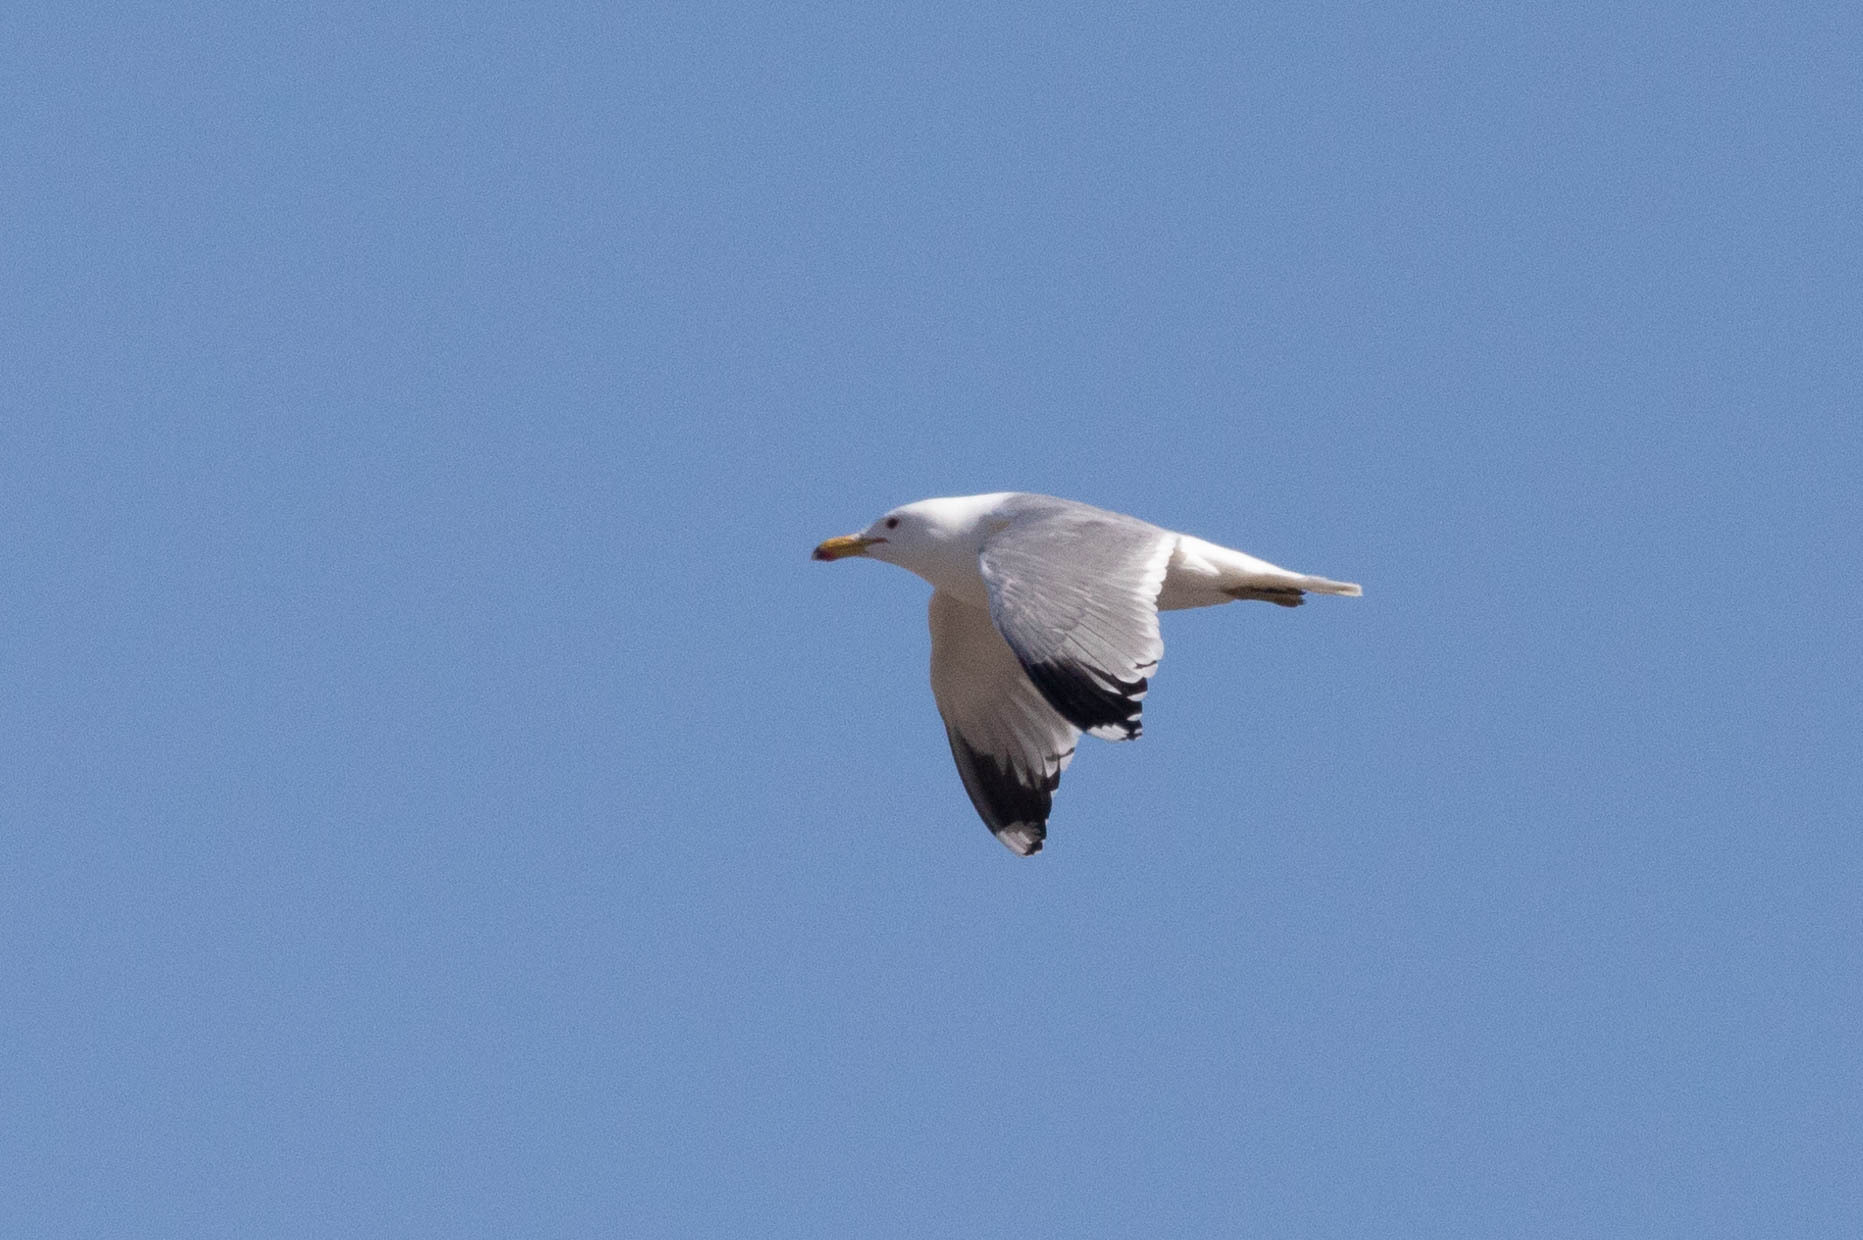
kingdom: Animalia
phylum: Chordata
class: Aves
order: Charadriiformes
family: Laridae
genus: Larus
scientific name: Larus californicus
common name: California gull
